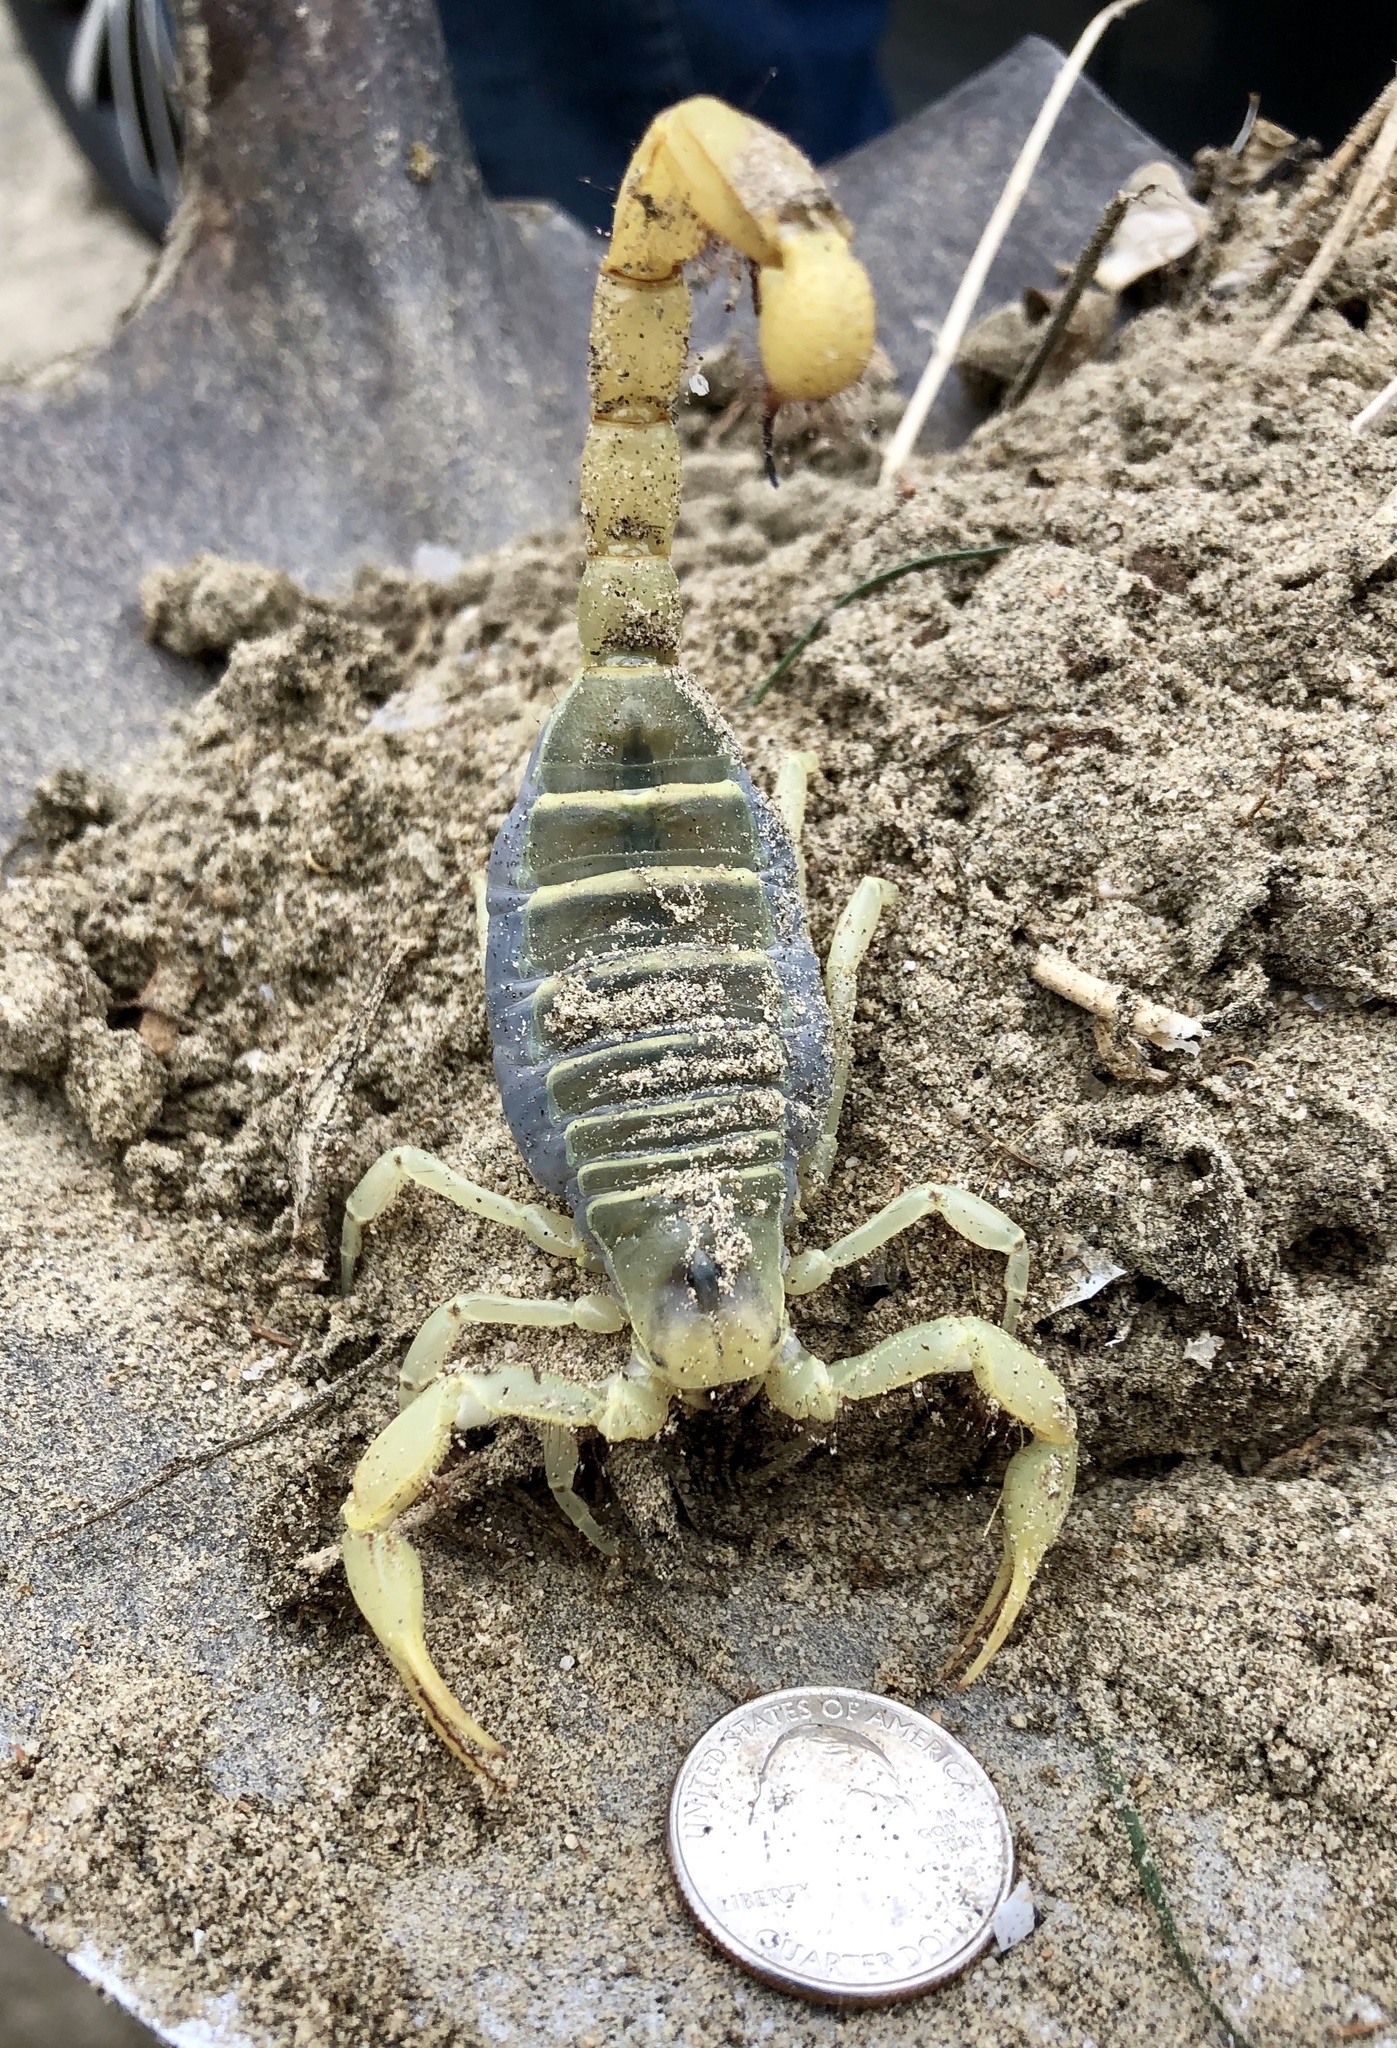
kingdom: Animalia
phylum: Arthropoda
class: Arachnida
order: Scorpiones
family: Hadruridae
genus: Hadrurus
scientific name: Hadrurus arizonensis
